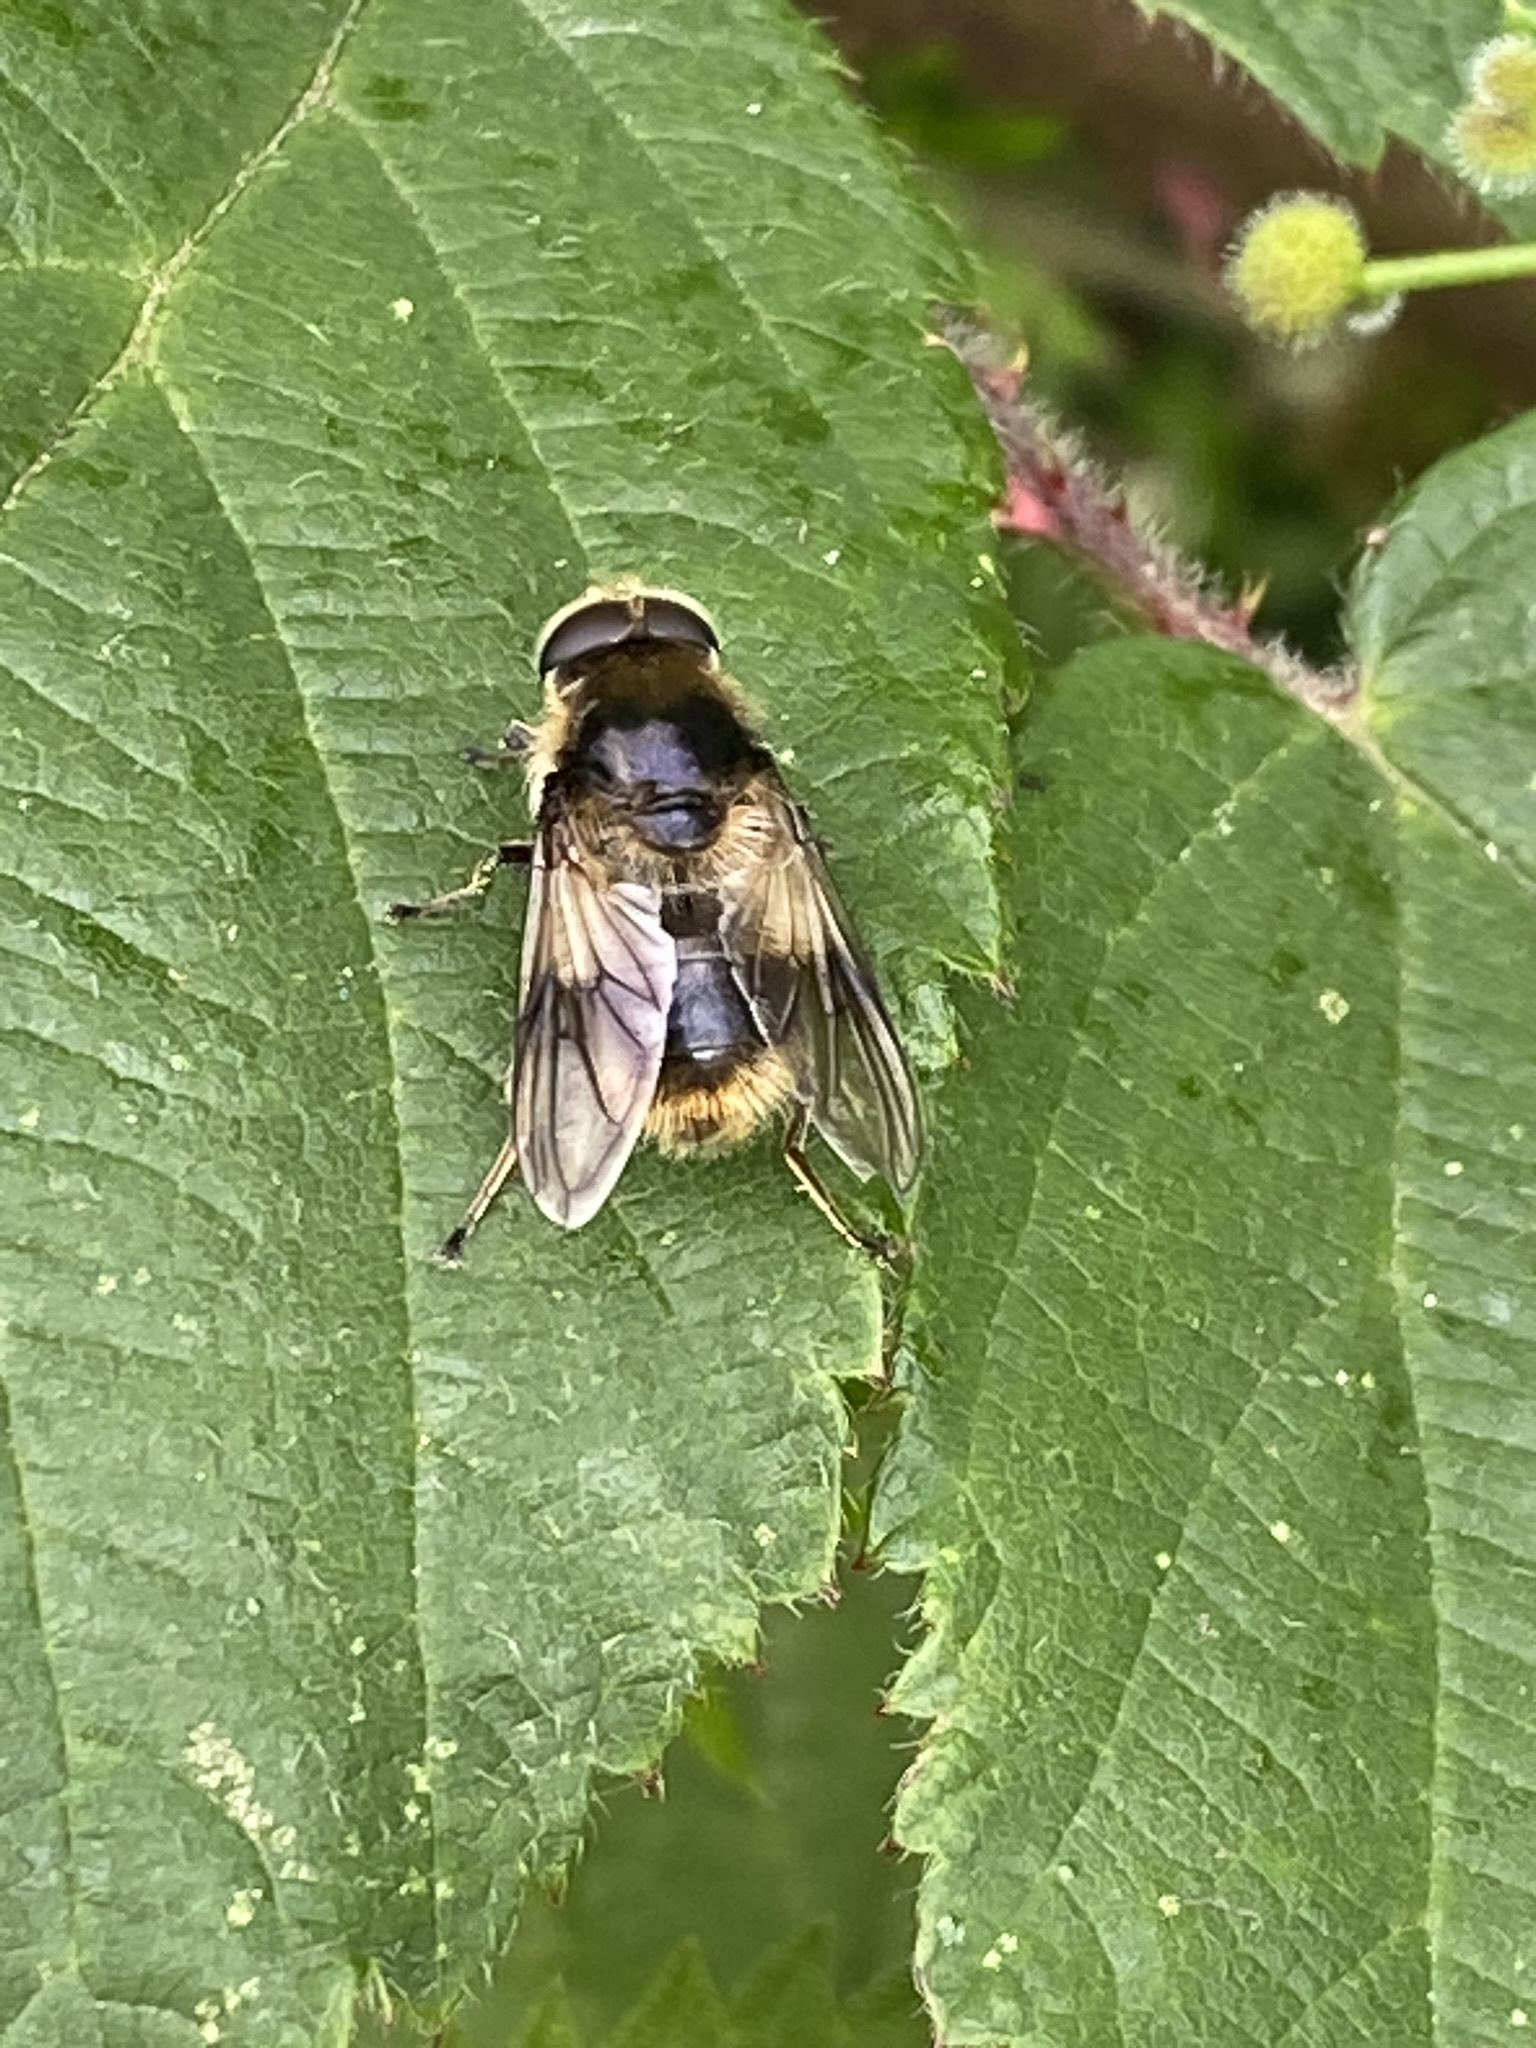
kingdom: Animalia
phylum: Arthropoda
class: Insecta
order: Diptera
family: Syrphidae
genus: Cheilosia
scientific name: Cheilosia illustrata
